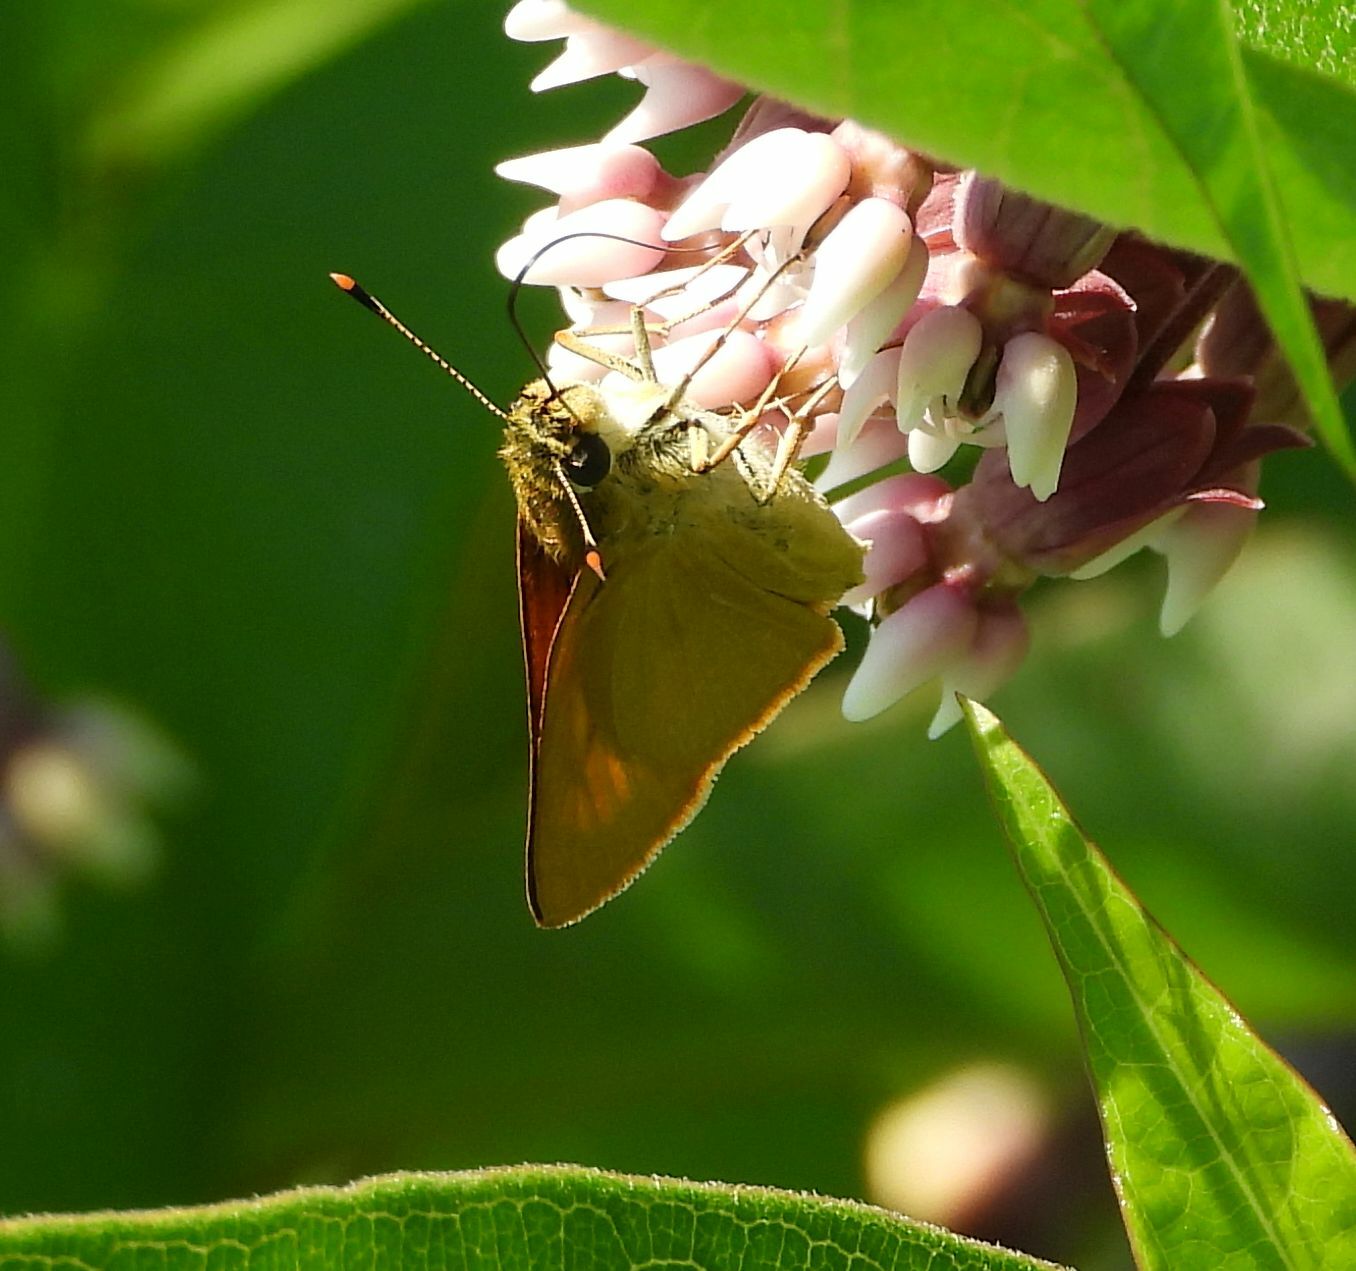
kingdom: Animalia
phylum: Arthropoda
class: Insecta
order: Lepidoptera
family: Hesperiidae
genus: Atrytone
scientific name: Atrytone delaware
